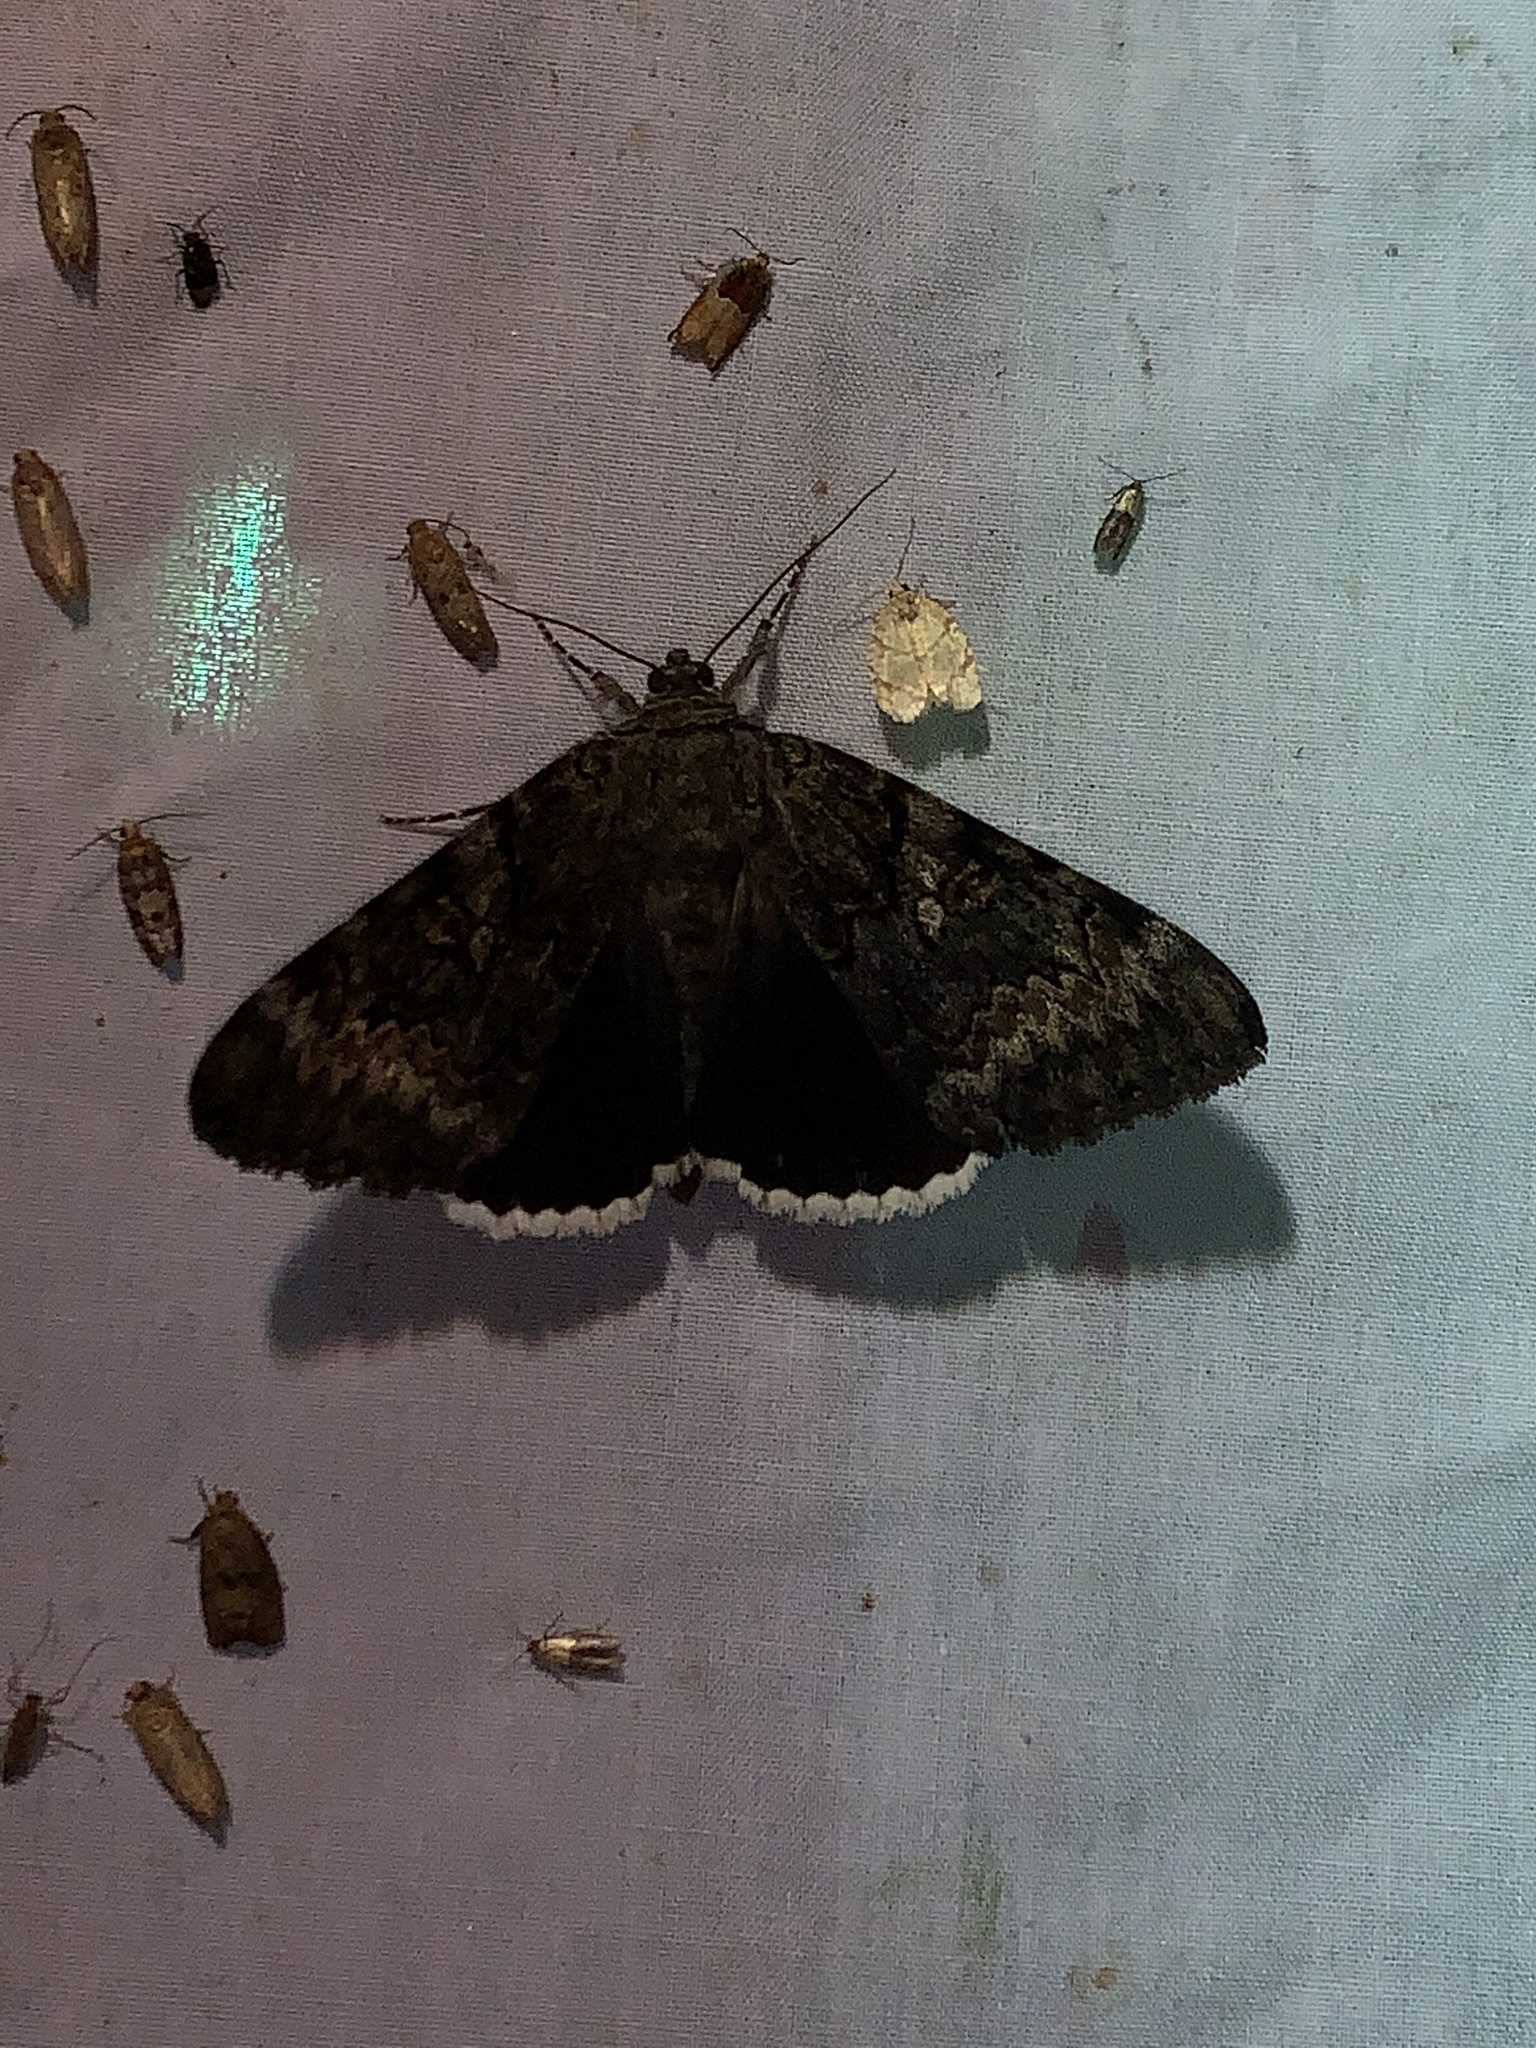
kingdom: Animalia
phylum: Arthropoda
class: Insecta
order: Lepidoptera
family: Erebidae
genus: Catocala
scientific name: Catocala epione
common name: Epione underwing
